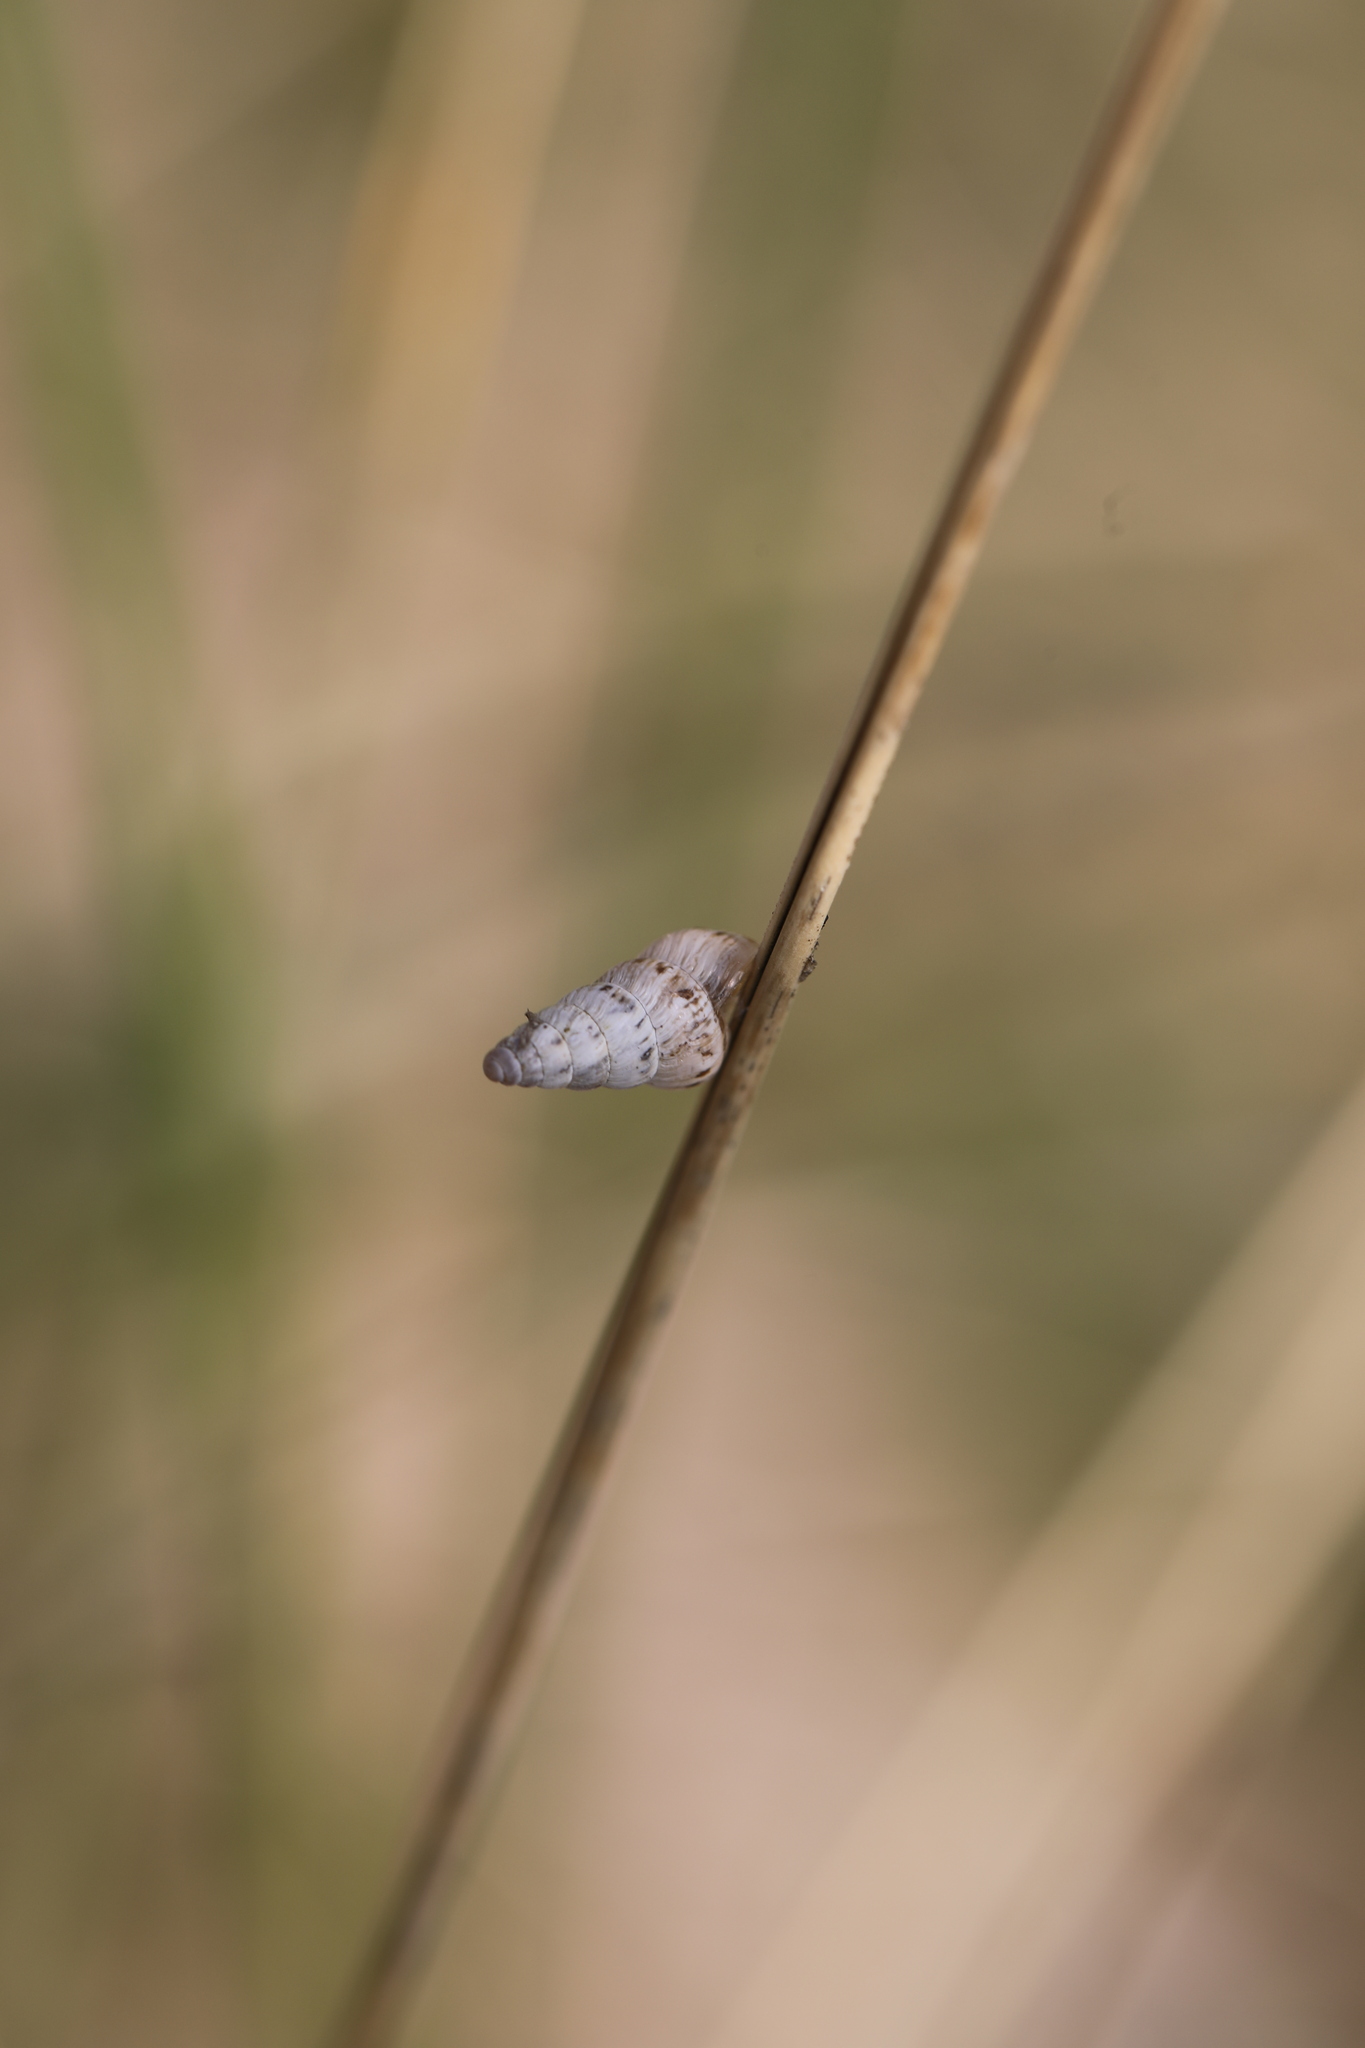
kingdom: Animalia
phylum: Mollusca
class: Gastropoda
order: Stylommatophora
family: Geomitridae
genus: Cochlicella
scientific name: Cochlicella acuta
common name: Pointed snail
